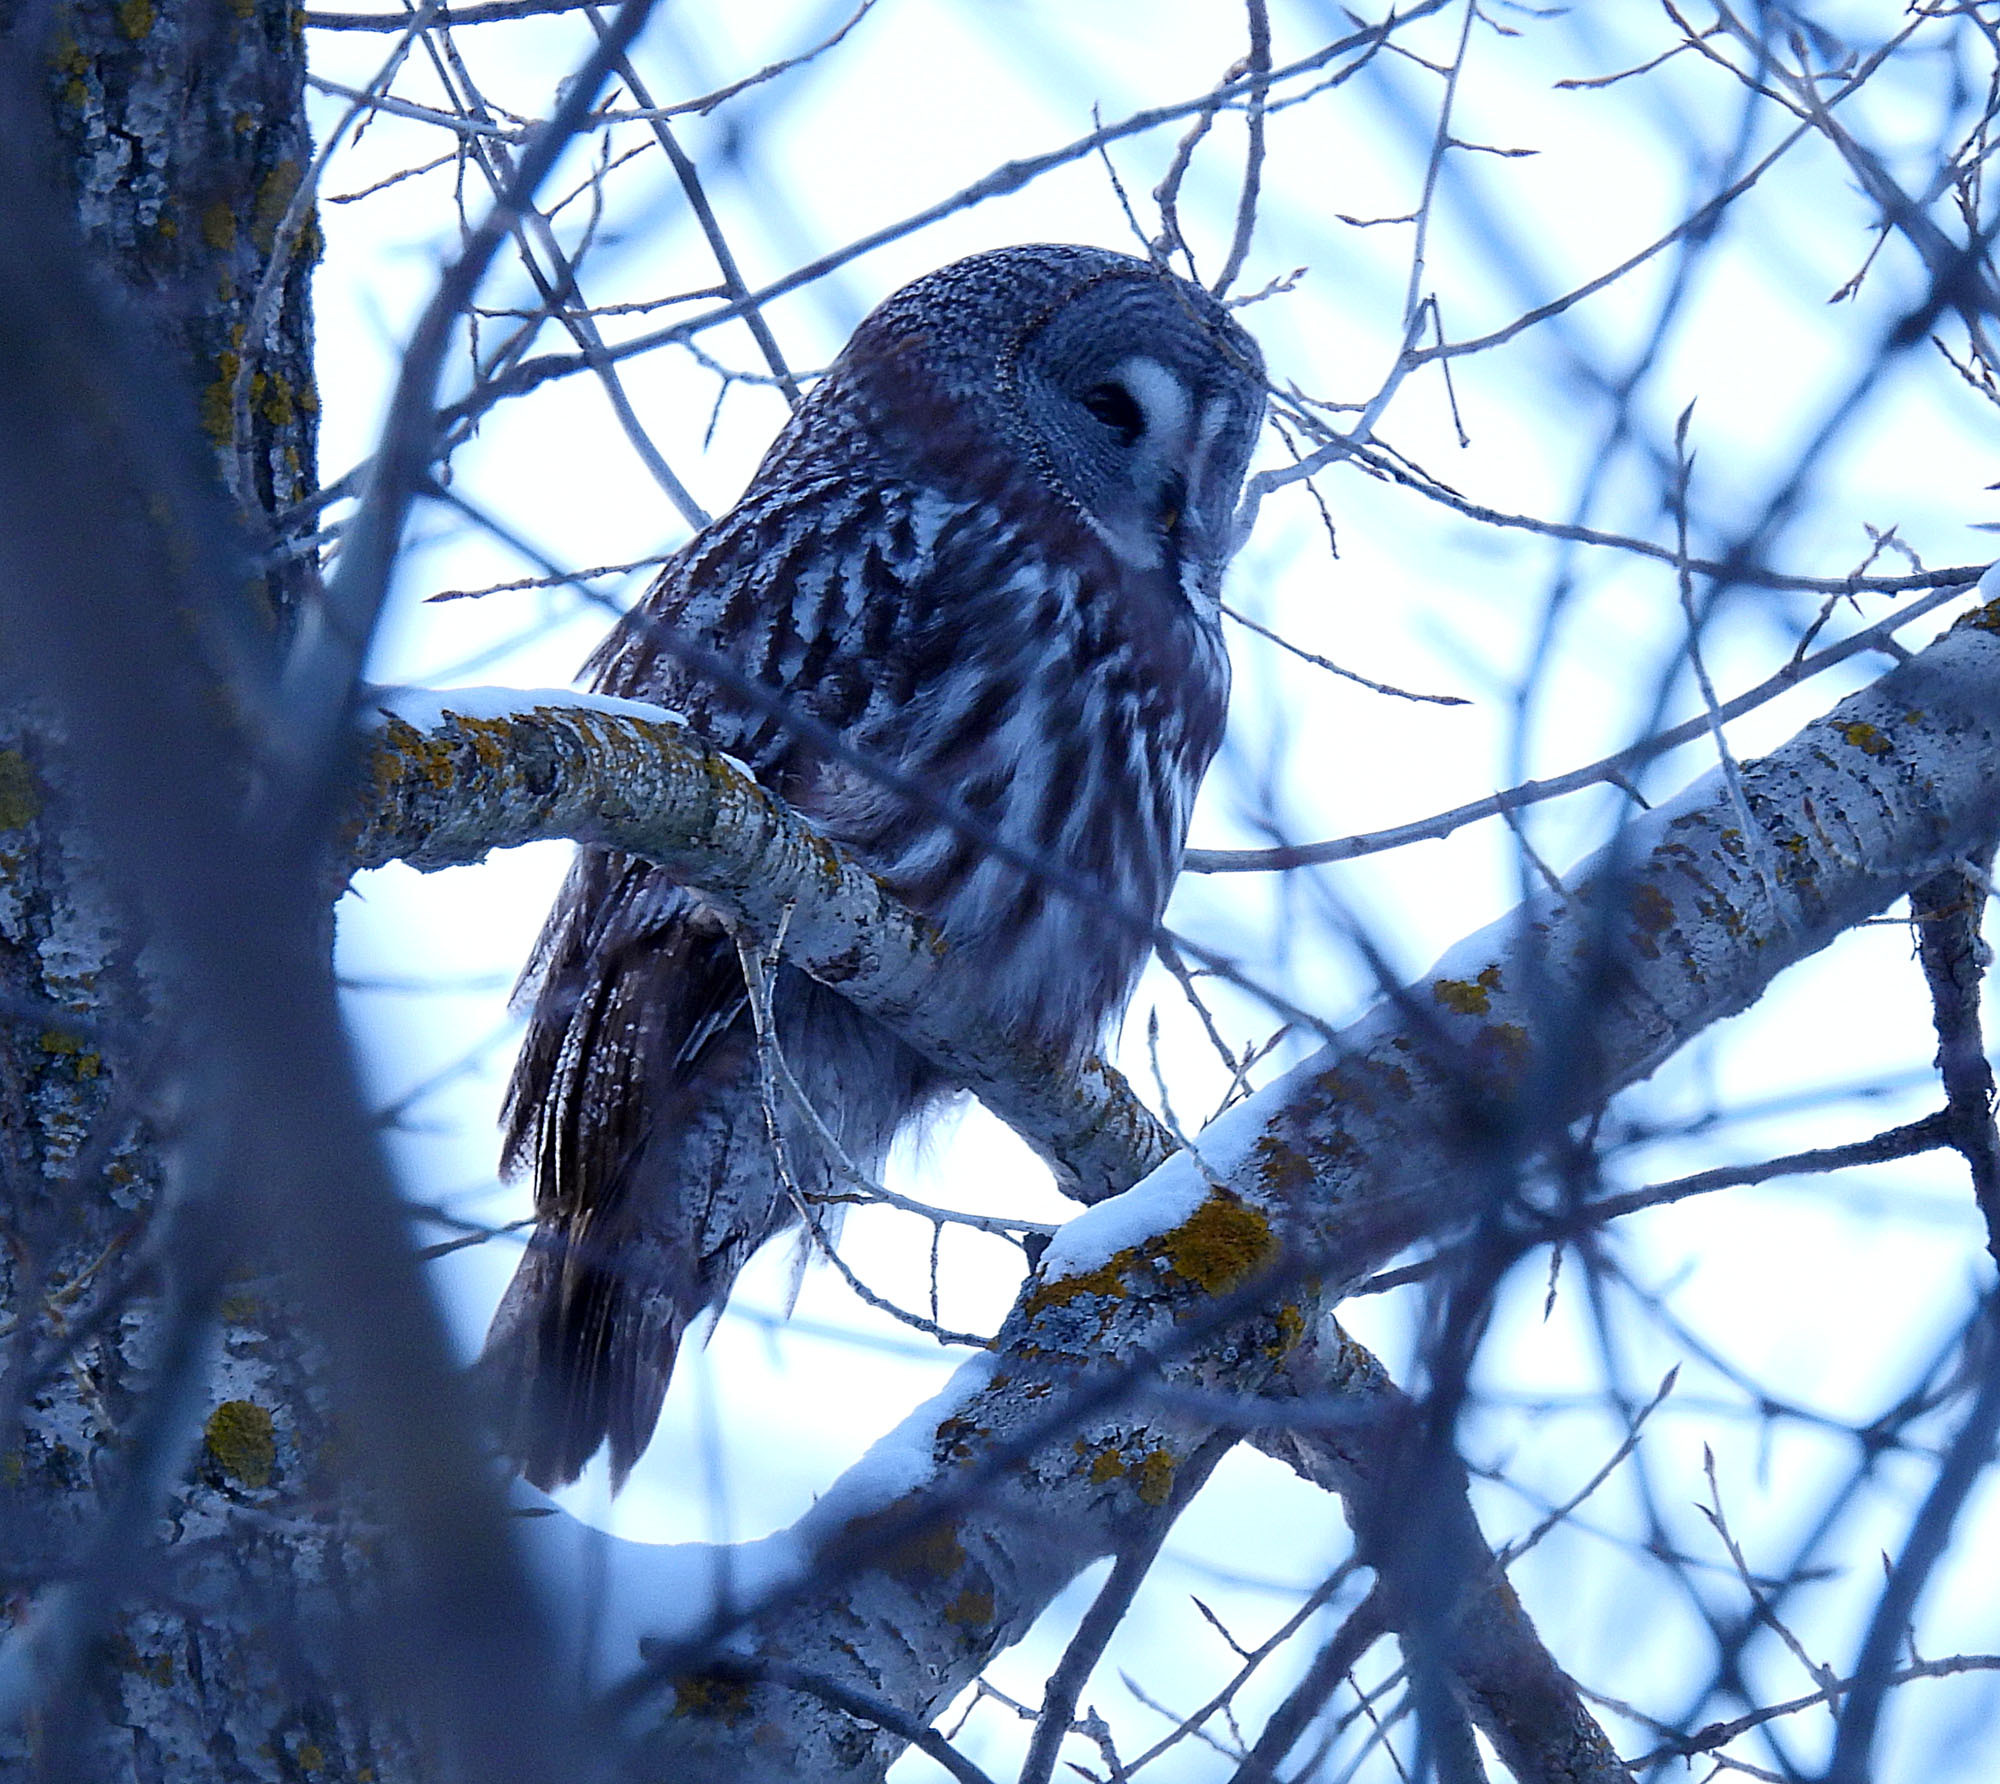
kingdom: Animalia
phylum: Chordata
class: Aves
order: Strigiformes
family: Strigidae
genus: Strix
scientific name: Strix nebulosa
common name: Great grey owl
